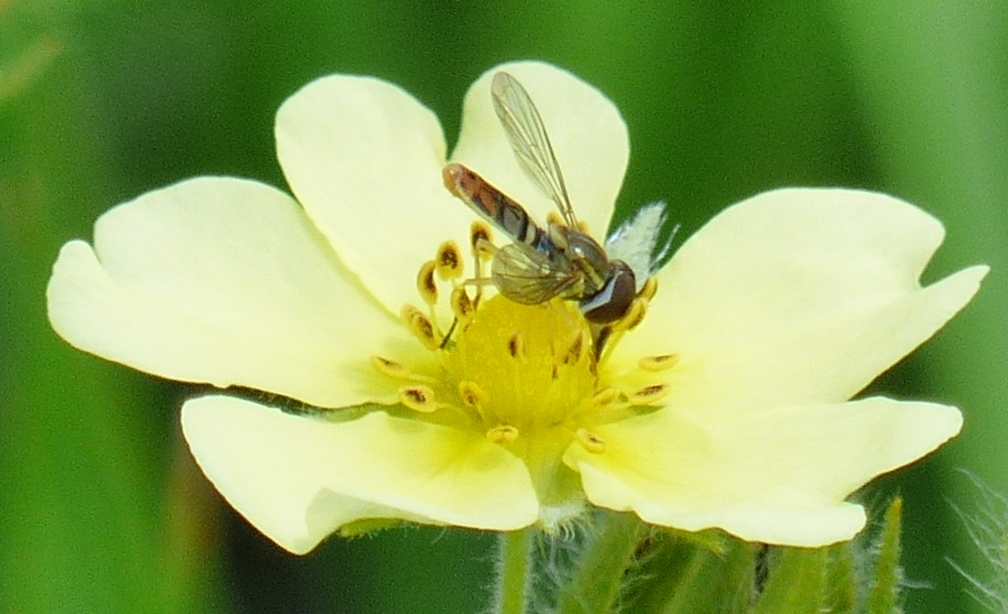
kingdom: Animalia
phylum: Arthropoda
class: Insecta
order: Diptera
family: Syrphidae
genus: Toxomerus
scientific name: Toxomerus marginatus
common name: Syrphid fly
